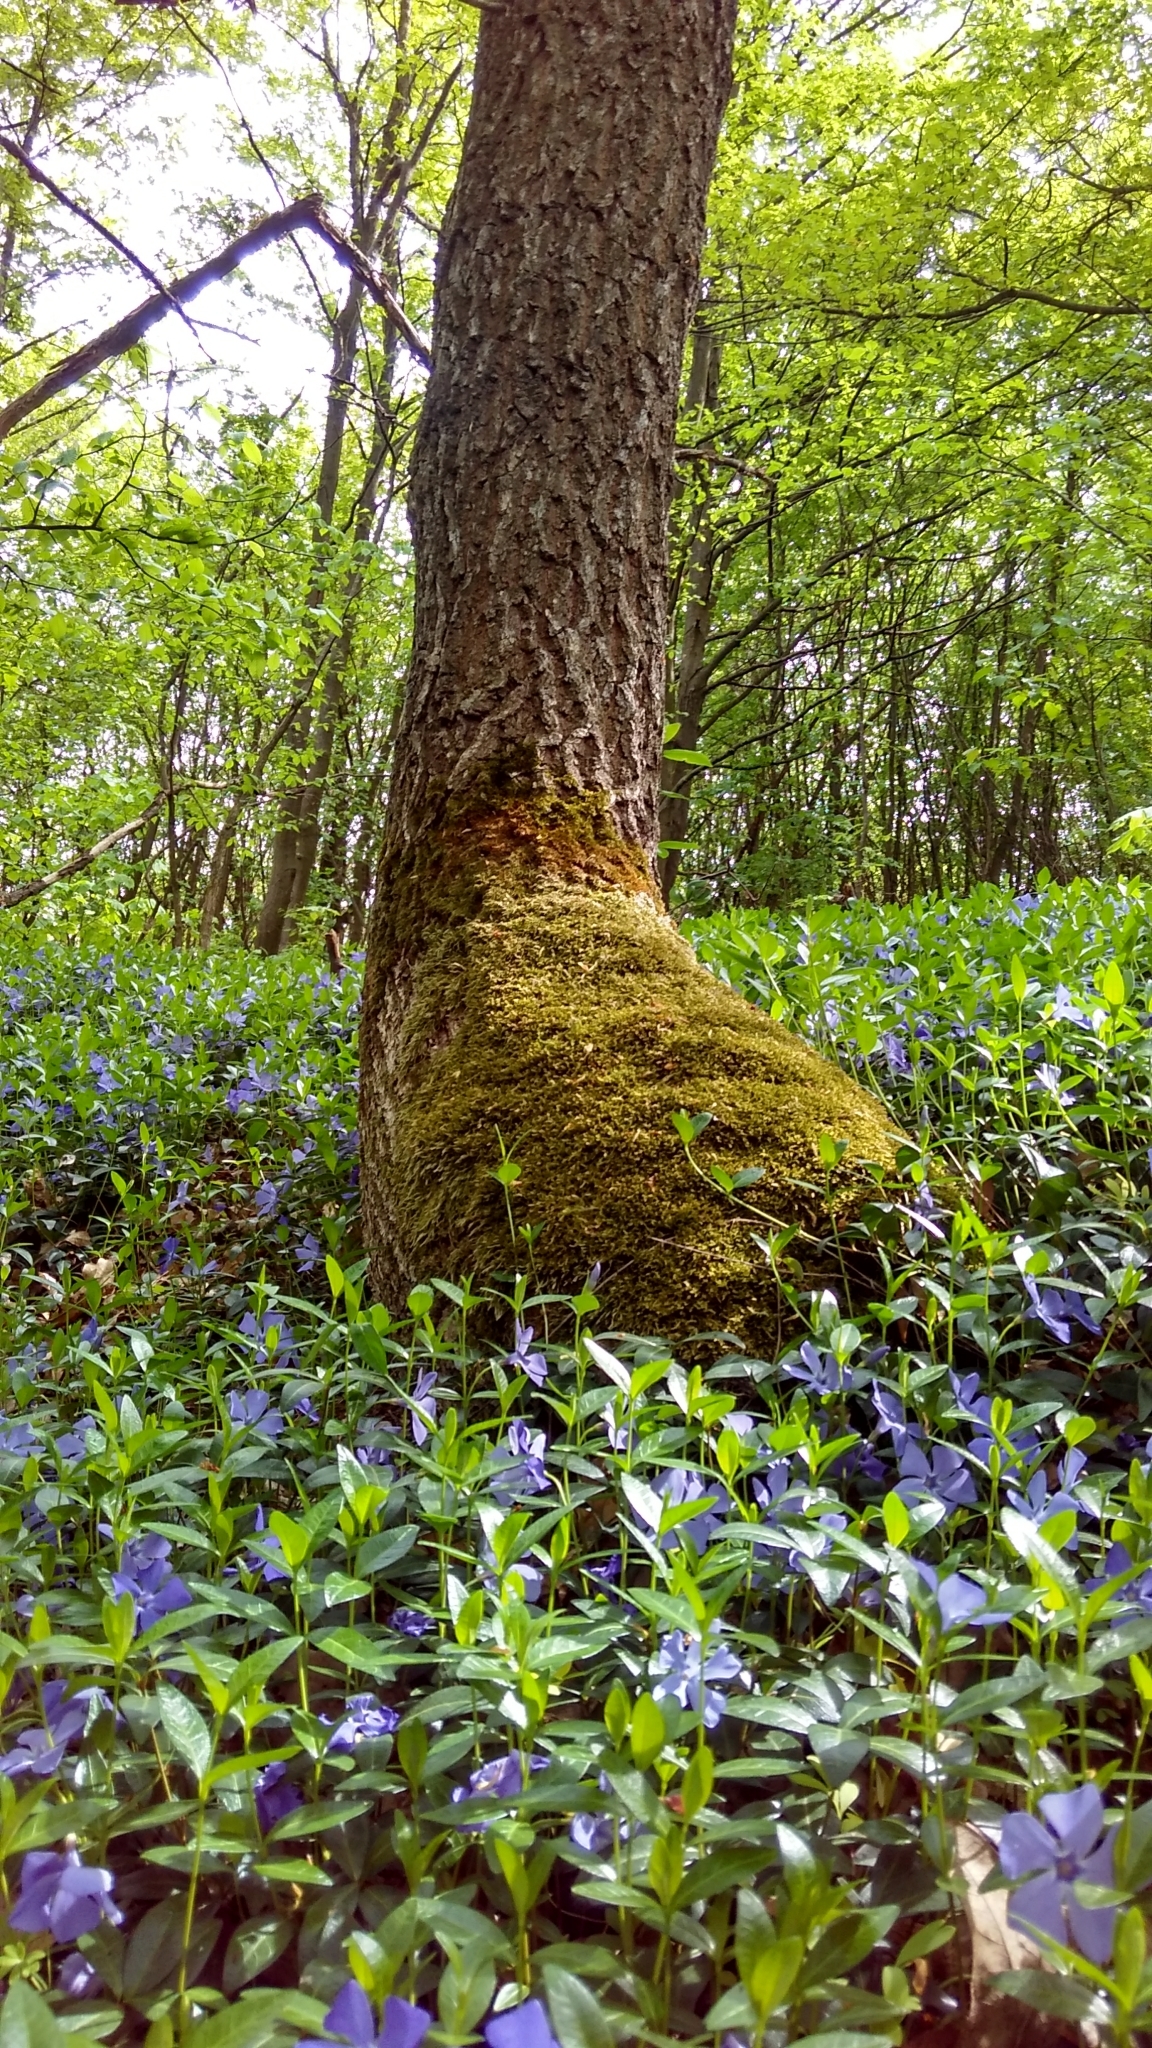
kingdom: Plantae
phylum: Tracheophyta
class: Magnoliopsida
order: Gentianales
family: Apocynaceae
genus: Vinca
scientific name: Vinca minor
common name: Lesser periwinkle
